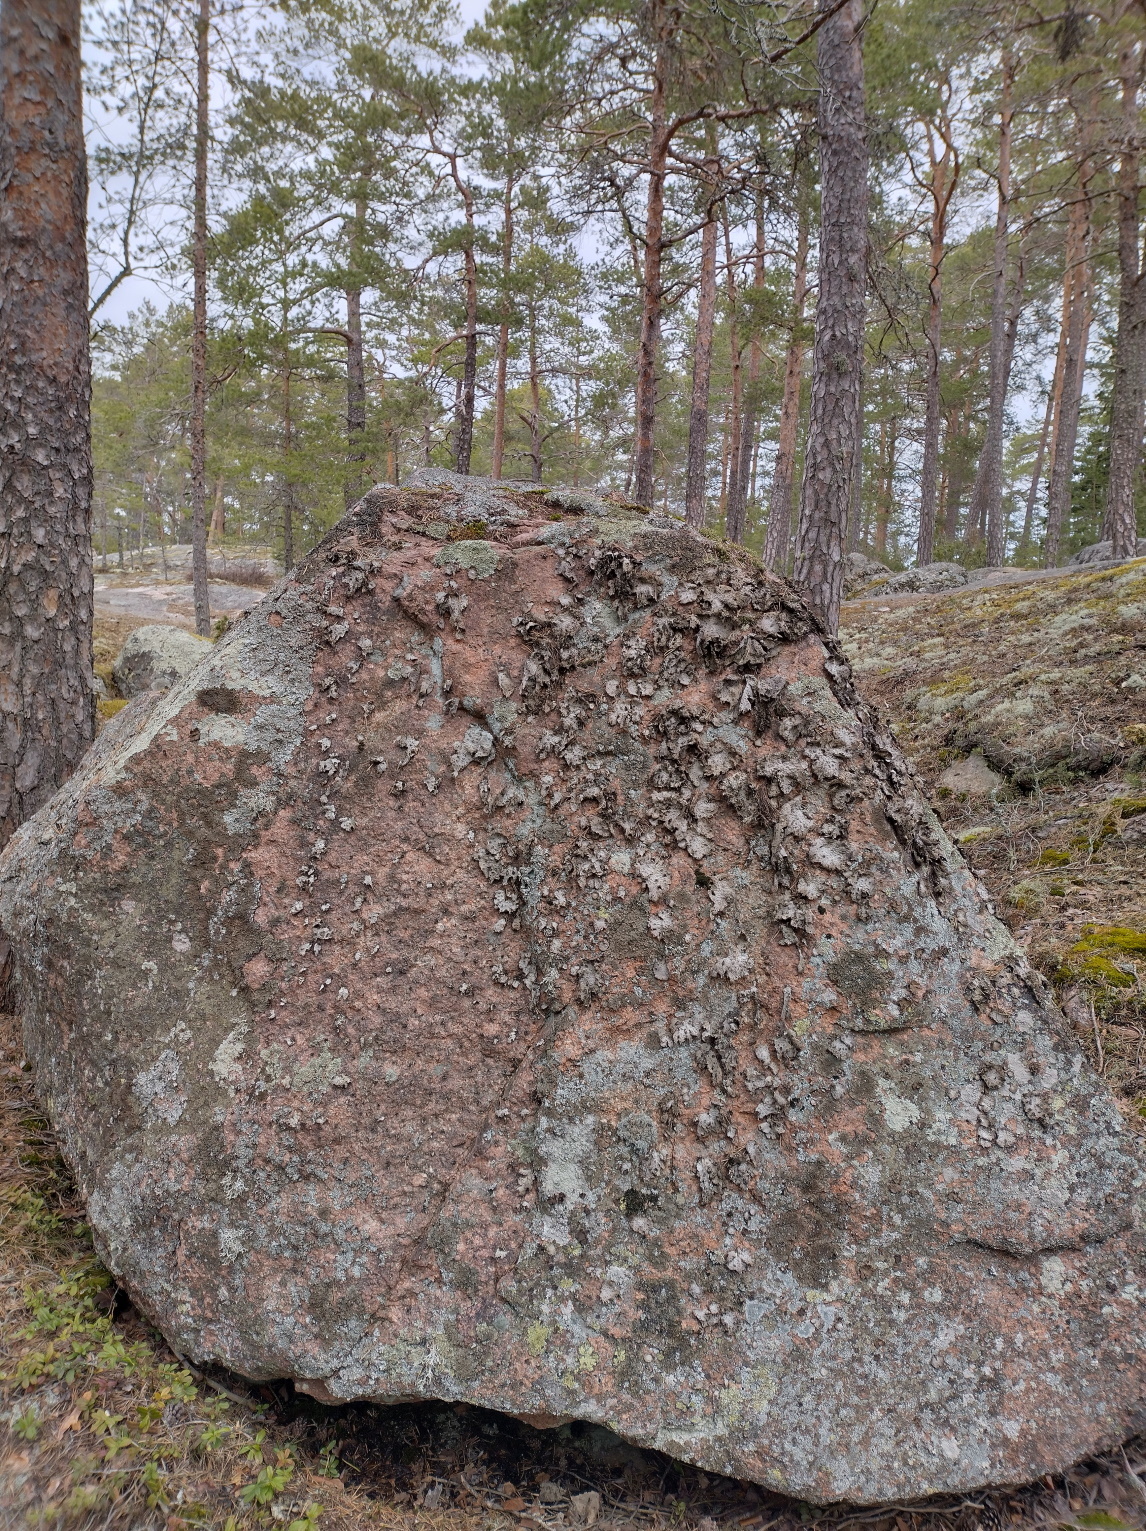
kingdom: Fungi
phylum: Ascomycota
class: Lecanoromycetes
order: Umbilicariales
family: Umbilicariaceae
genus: Lasallia
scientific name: Lasallia pustulata
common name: Blistered toadskin lichen
